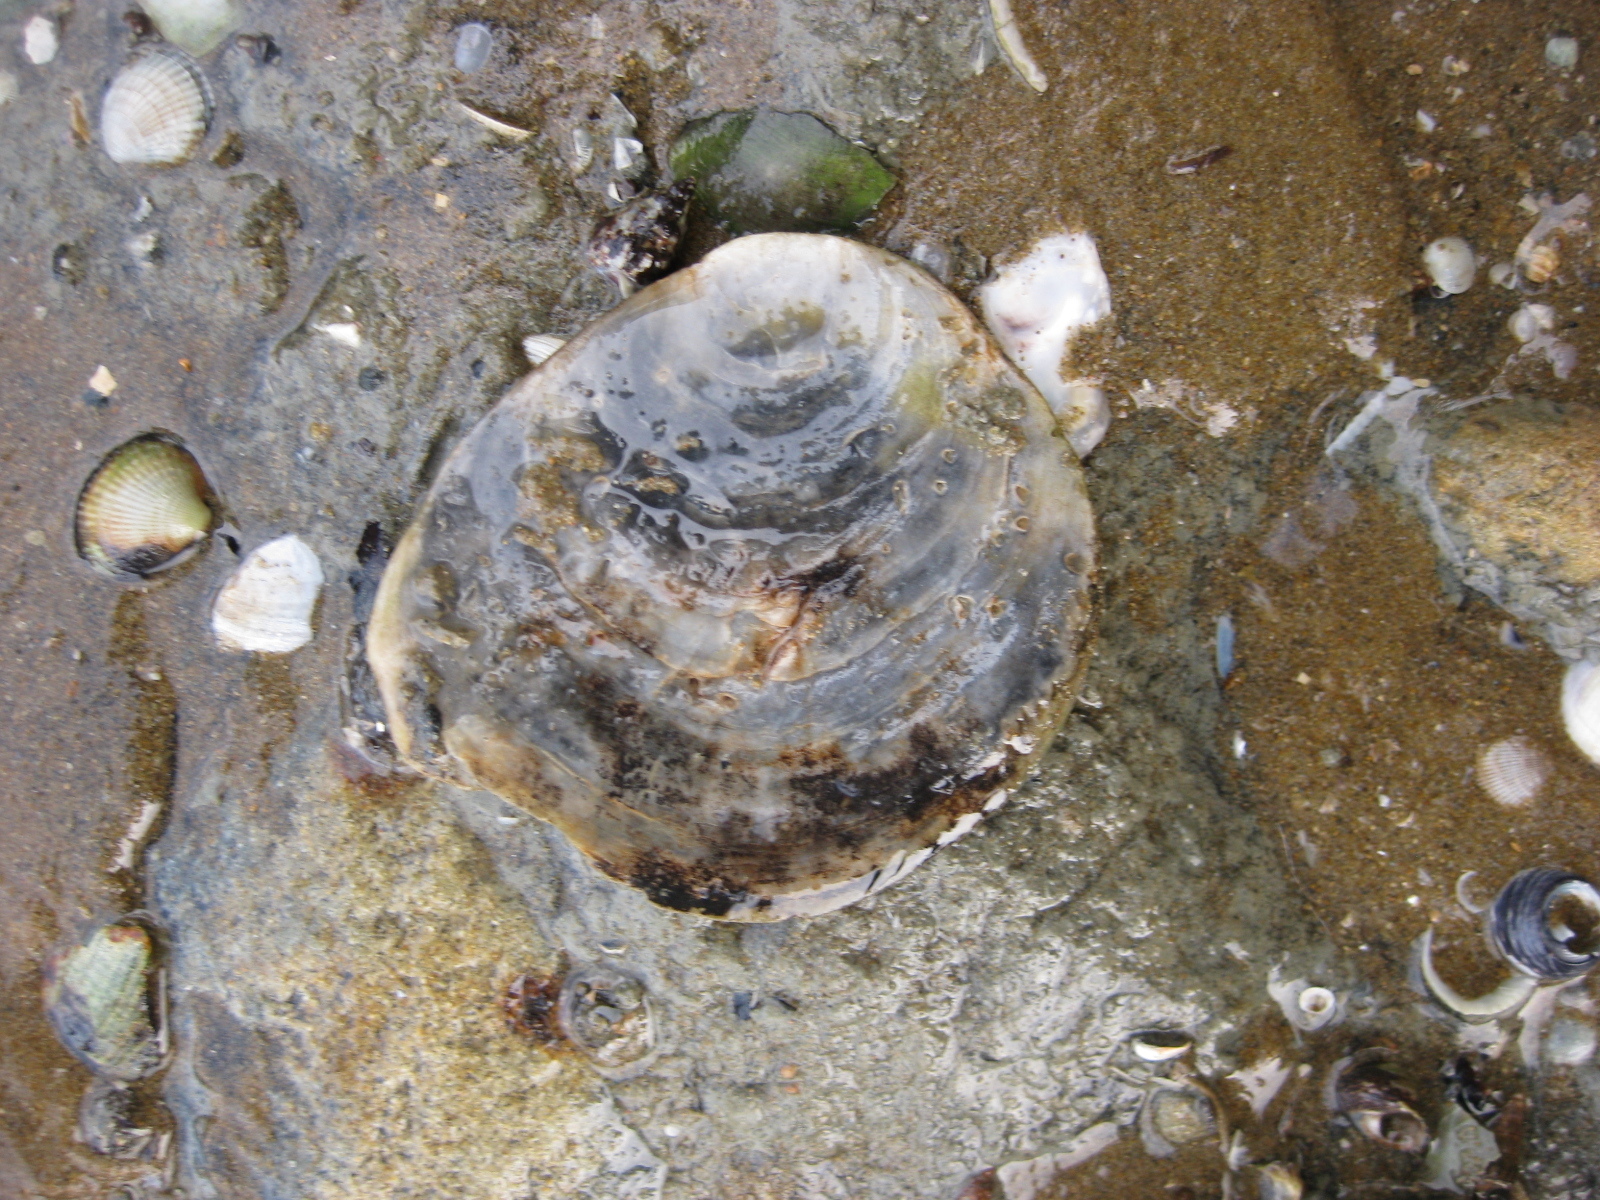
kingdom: Animalia
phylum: Mollusca
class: Bivalvia
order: Ostreida
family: Ostreidae
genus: Ostrea
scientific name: Ostrea chilensis
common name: Chilean oyster
